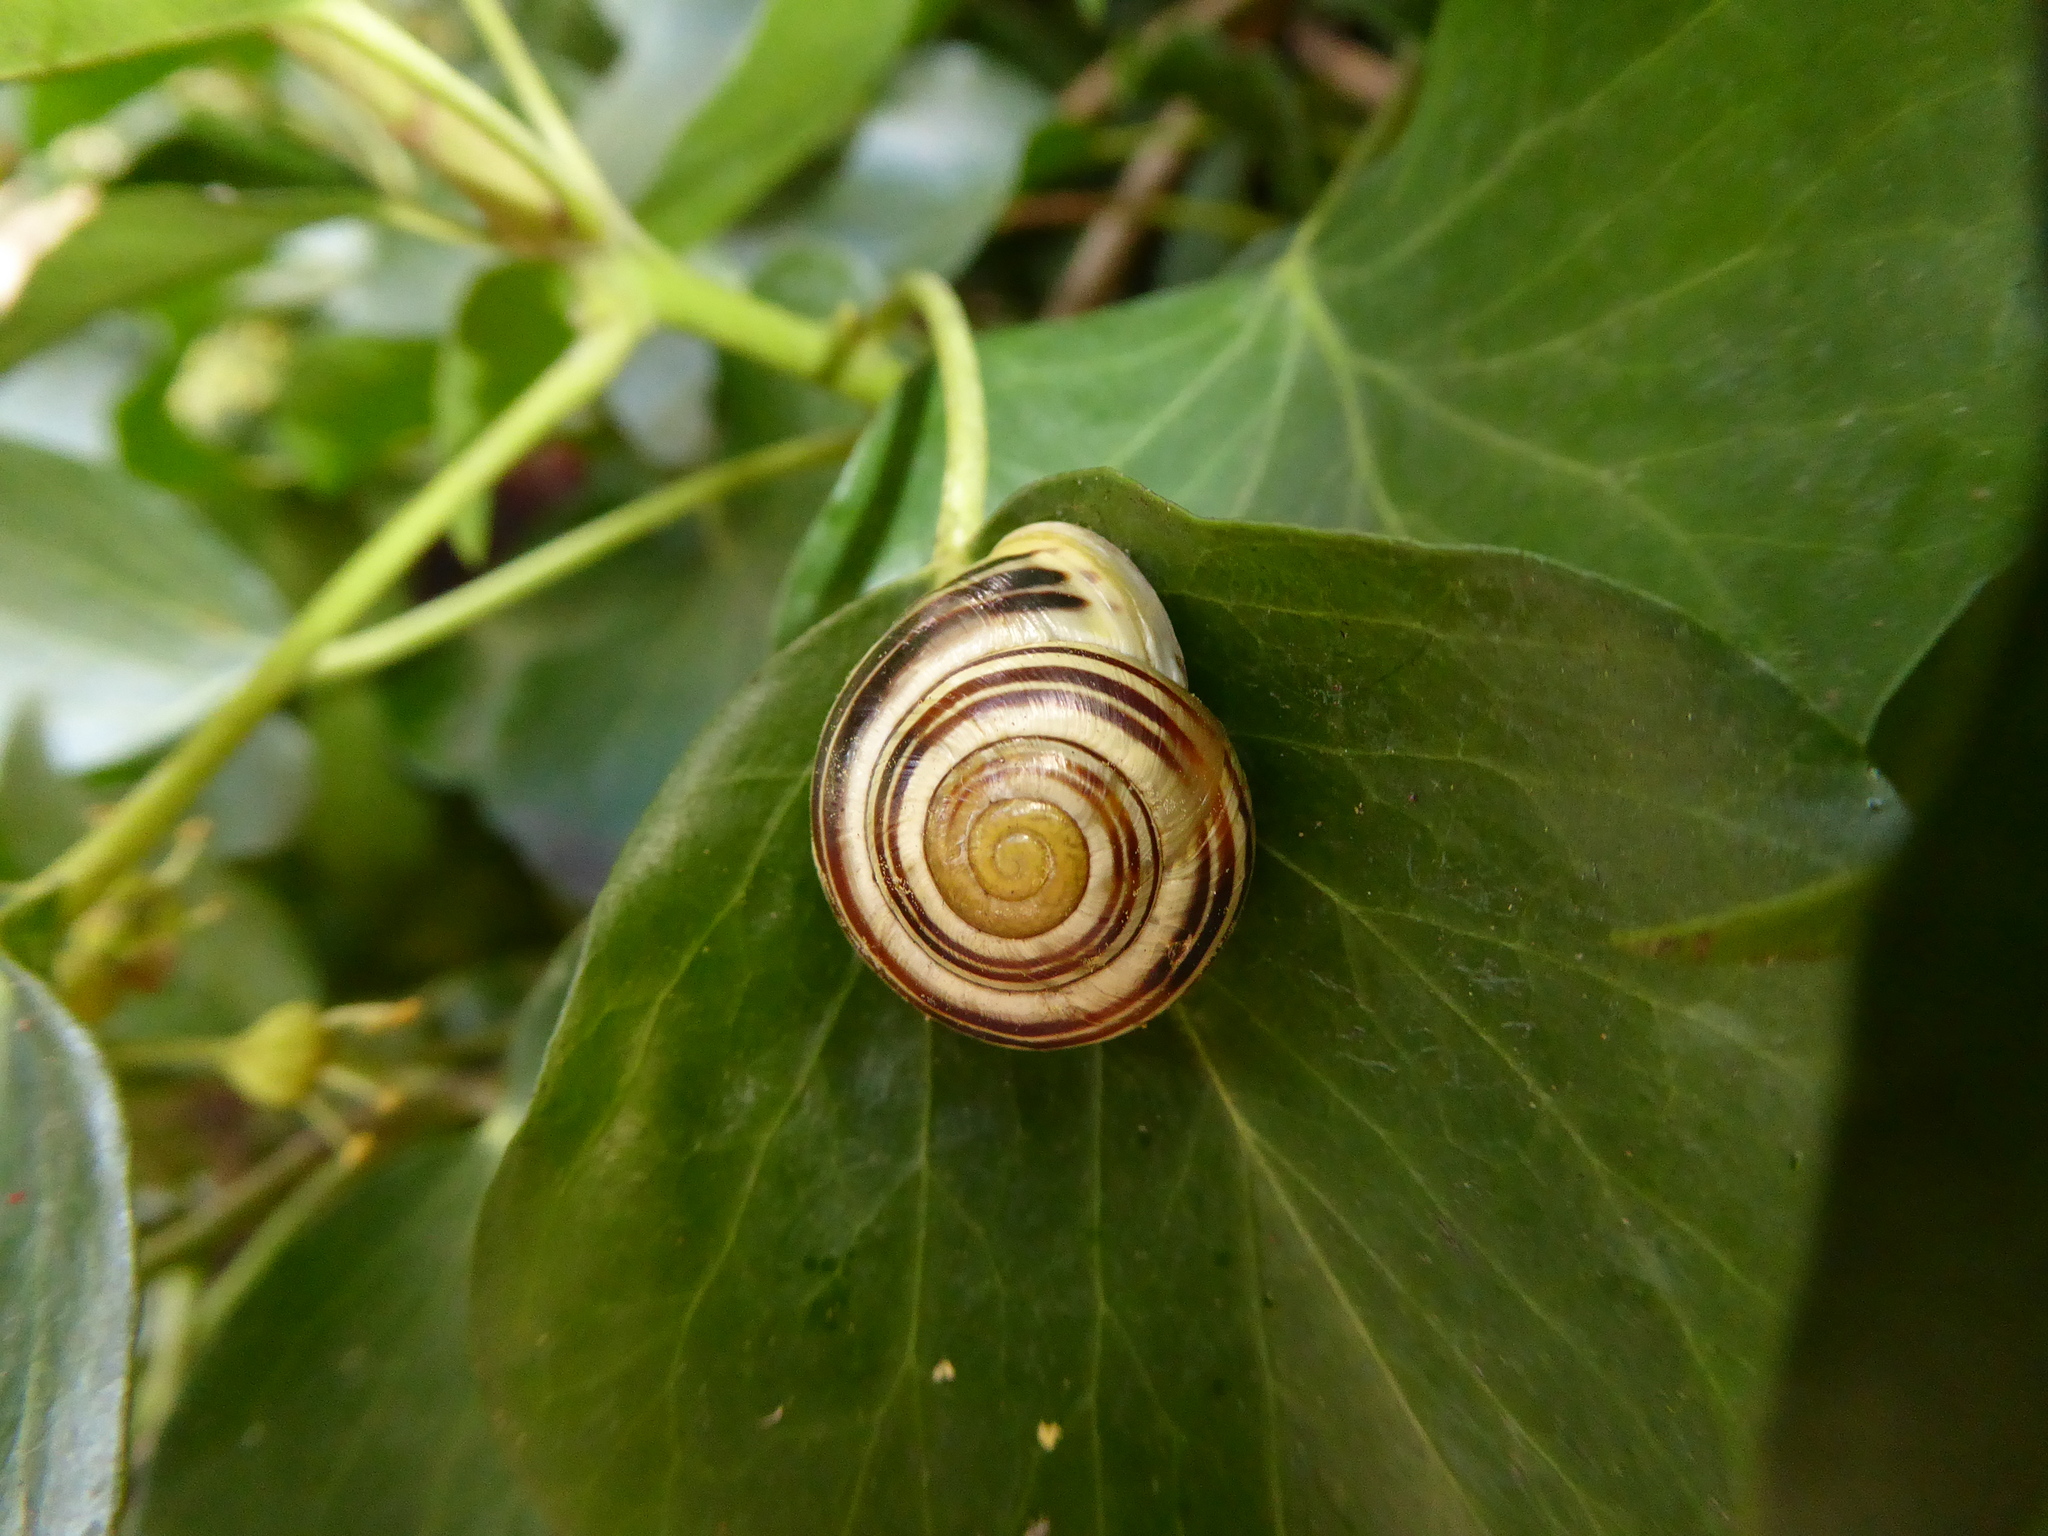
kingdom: Animalia
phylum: Mollusca
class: Gastropoda
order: Stylommatophora
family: Helicidae
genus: Cepaea
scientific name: Cepaea hortensis
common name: White-lip gardensnail
